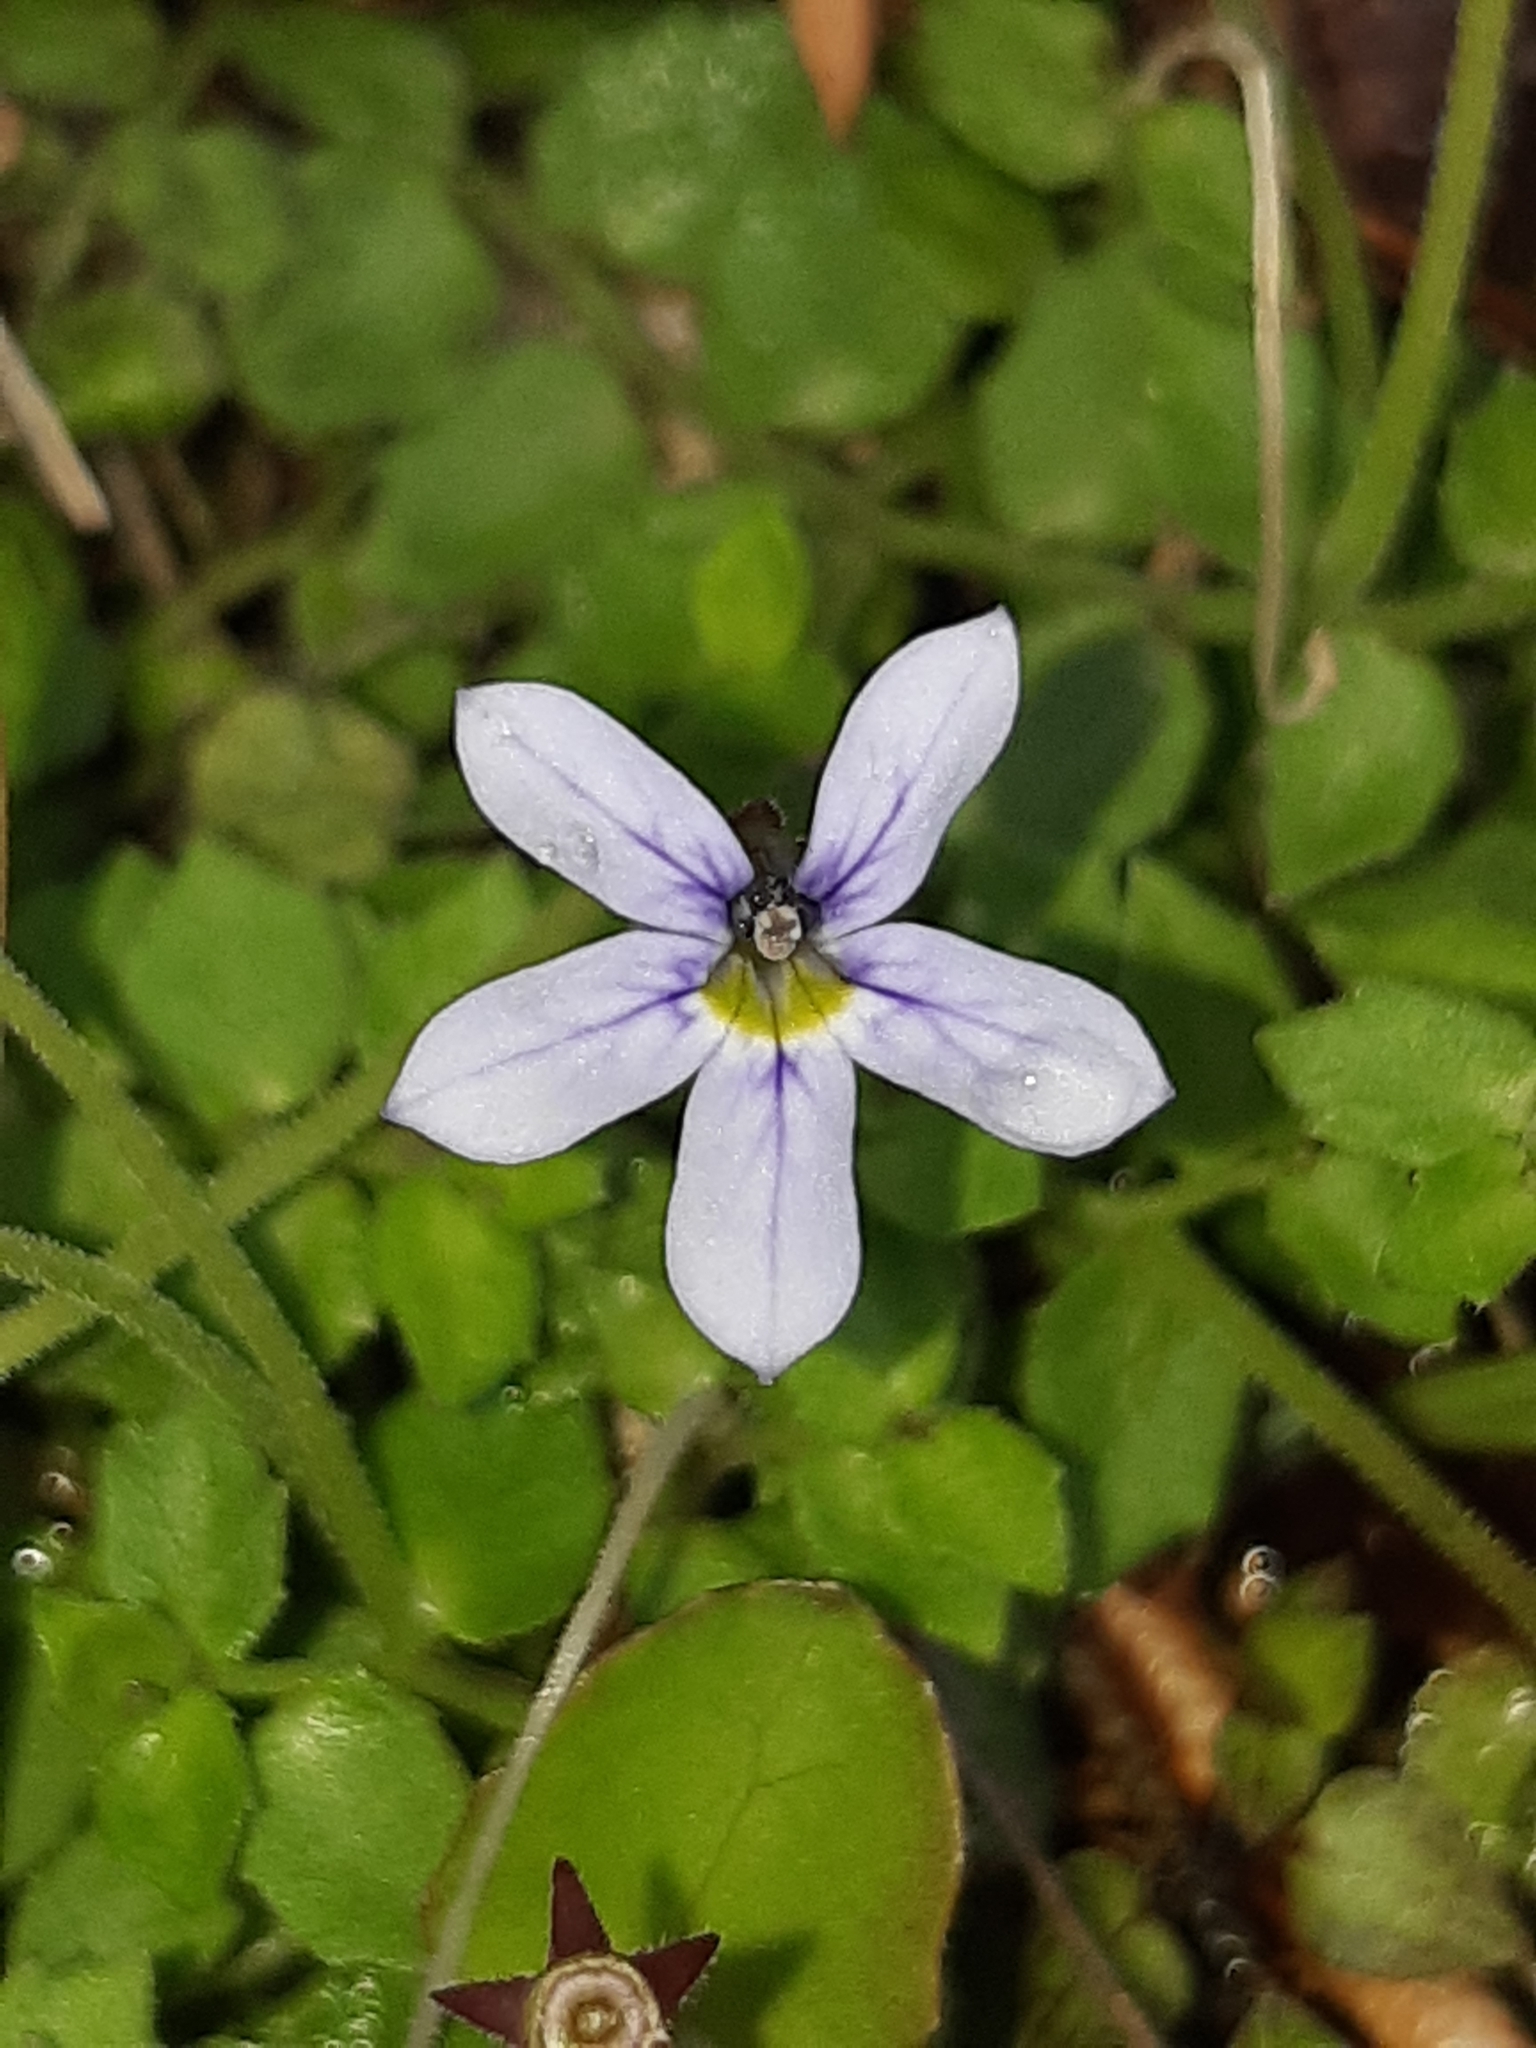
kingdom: Plantae
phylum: Tracheophyta
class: Magnoliopsida
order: Asterales
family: Campanulaceae
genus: Lobelia
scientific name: Lobelia pedunculata
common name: Matted pratia
